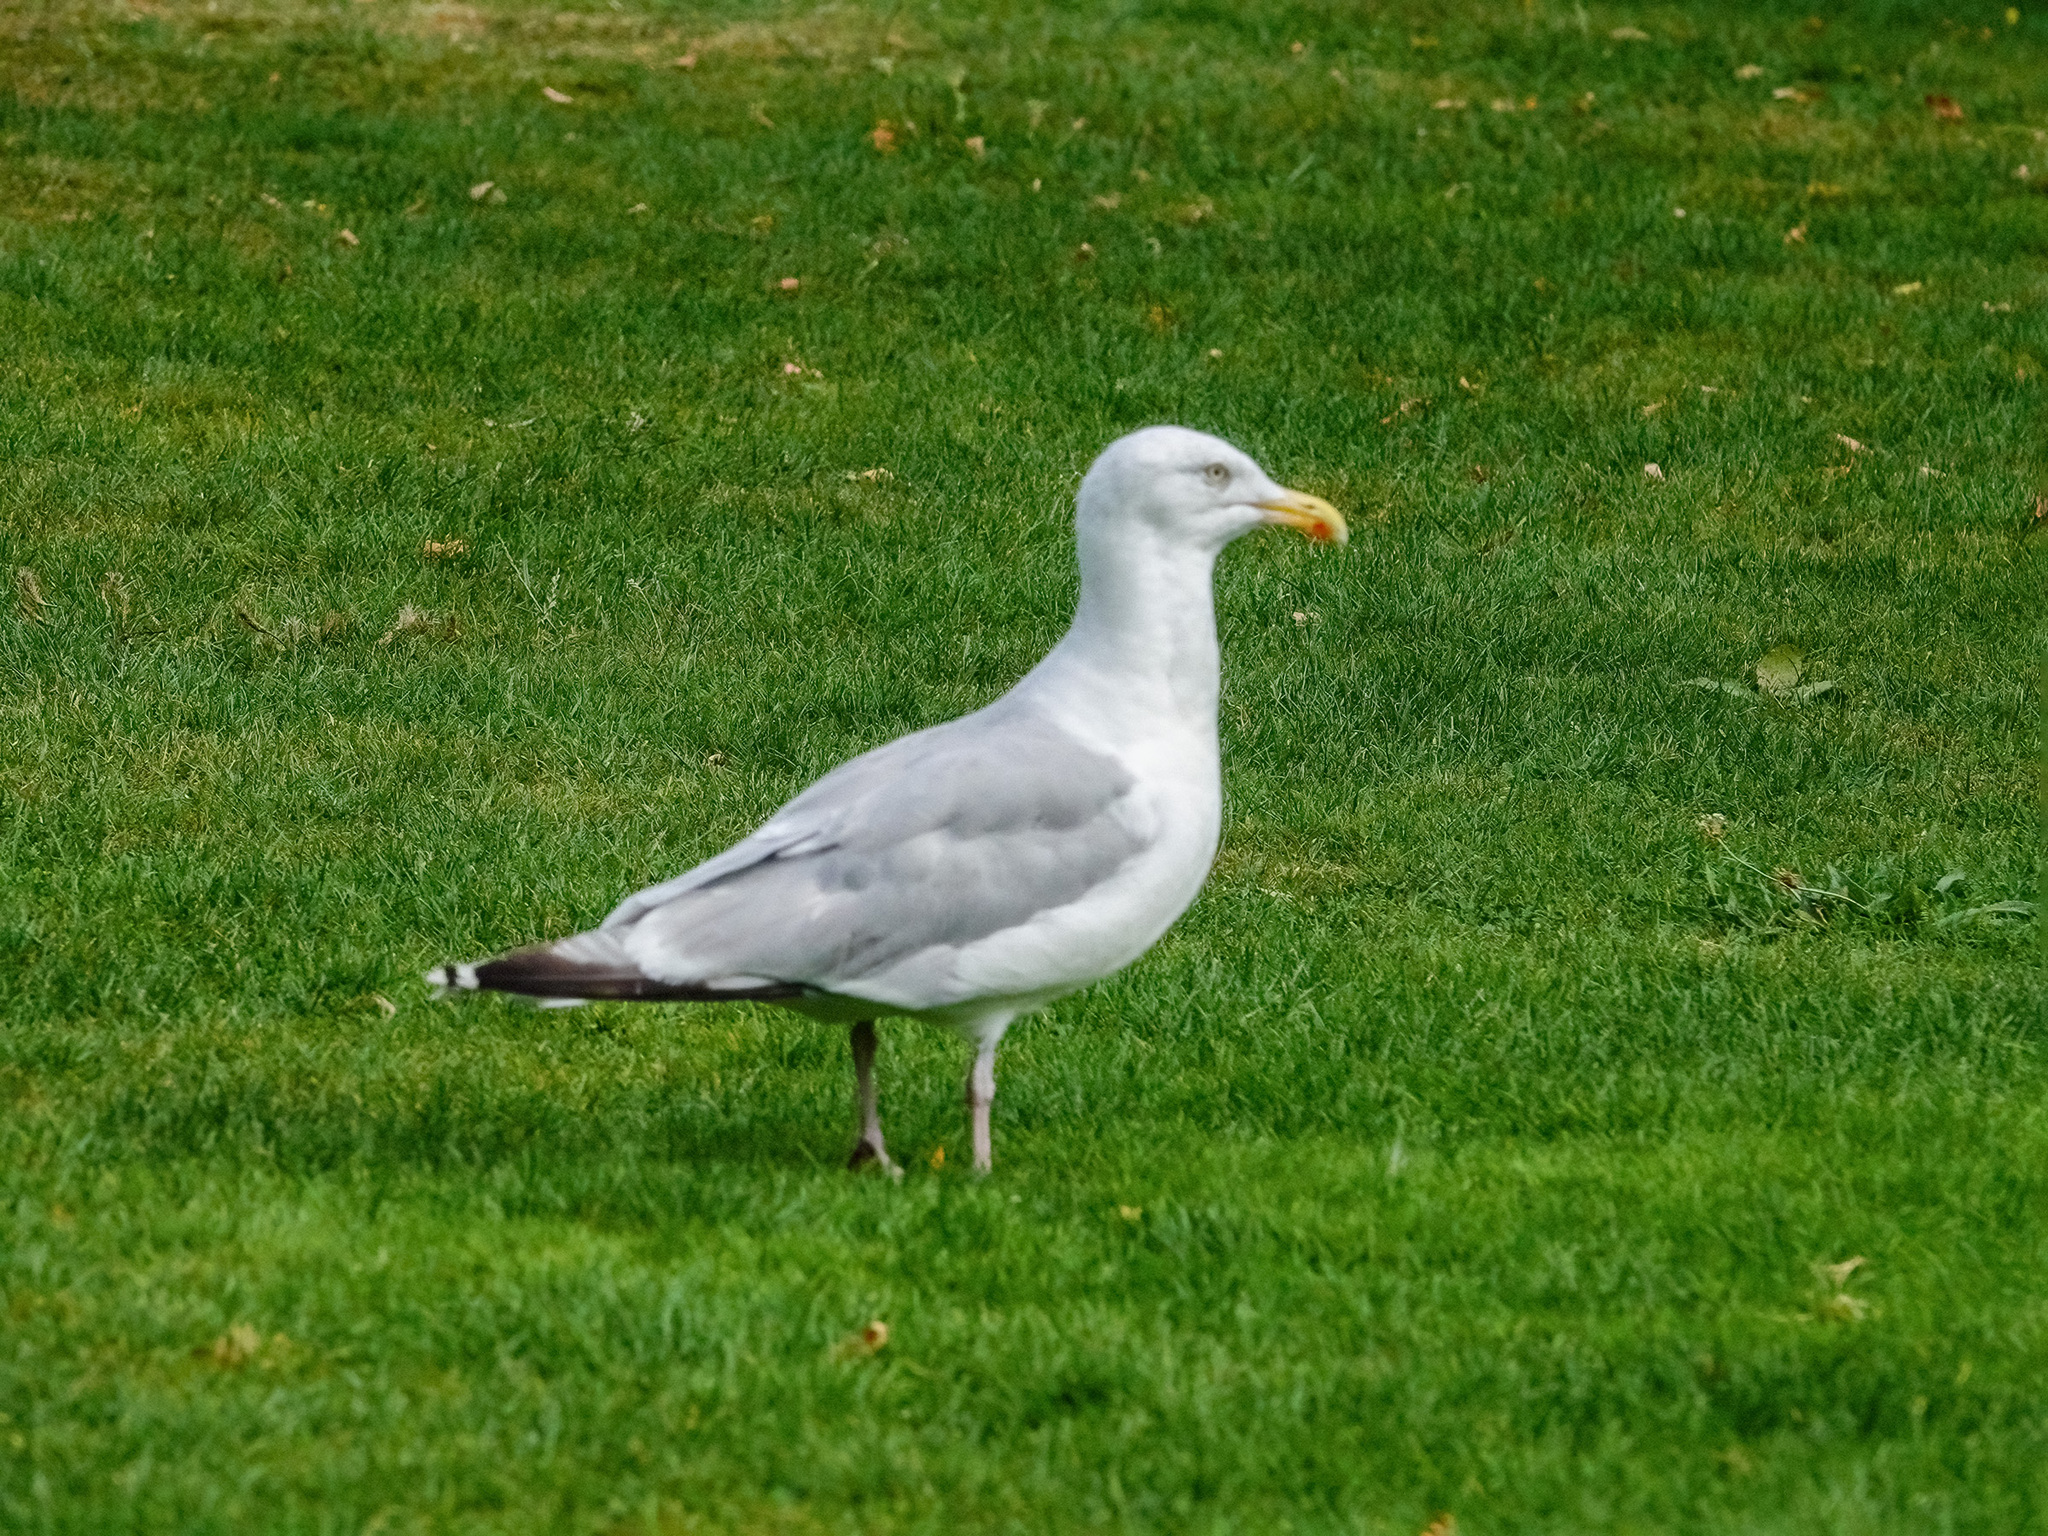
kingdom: Animalia
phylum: Chordata
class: Aves
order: Charadriiformes
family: Laridae
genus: Larus
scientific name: Larus argentatus
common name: Herring gull
